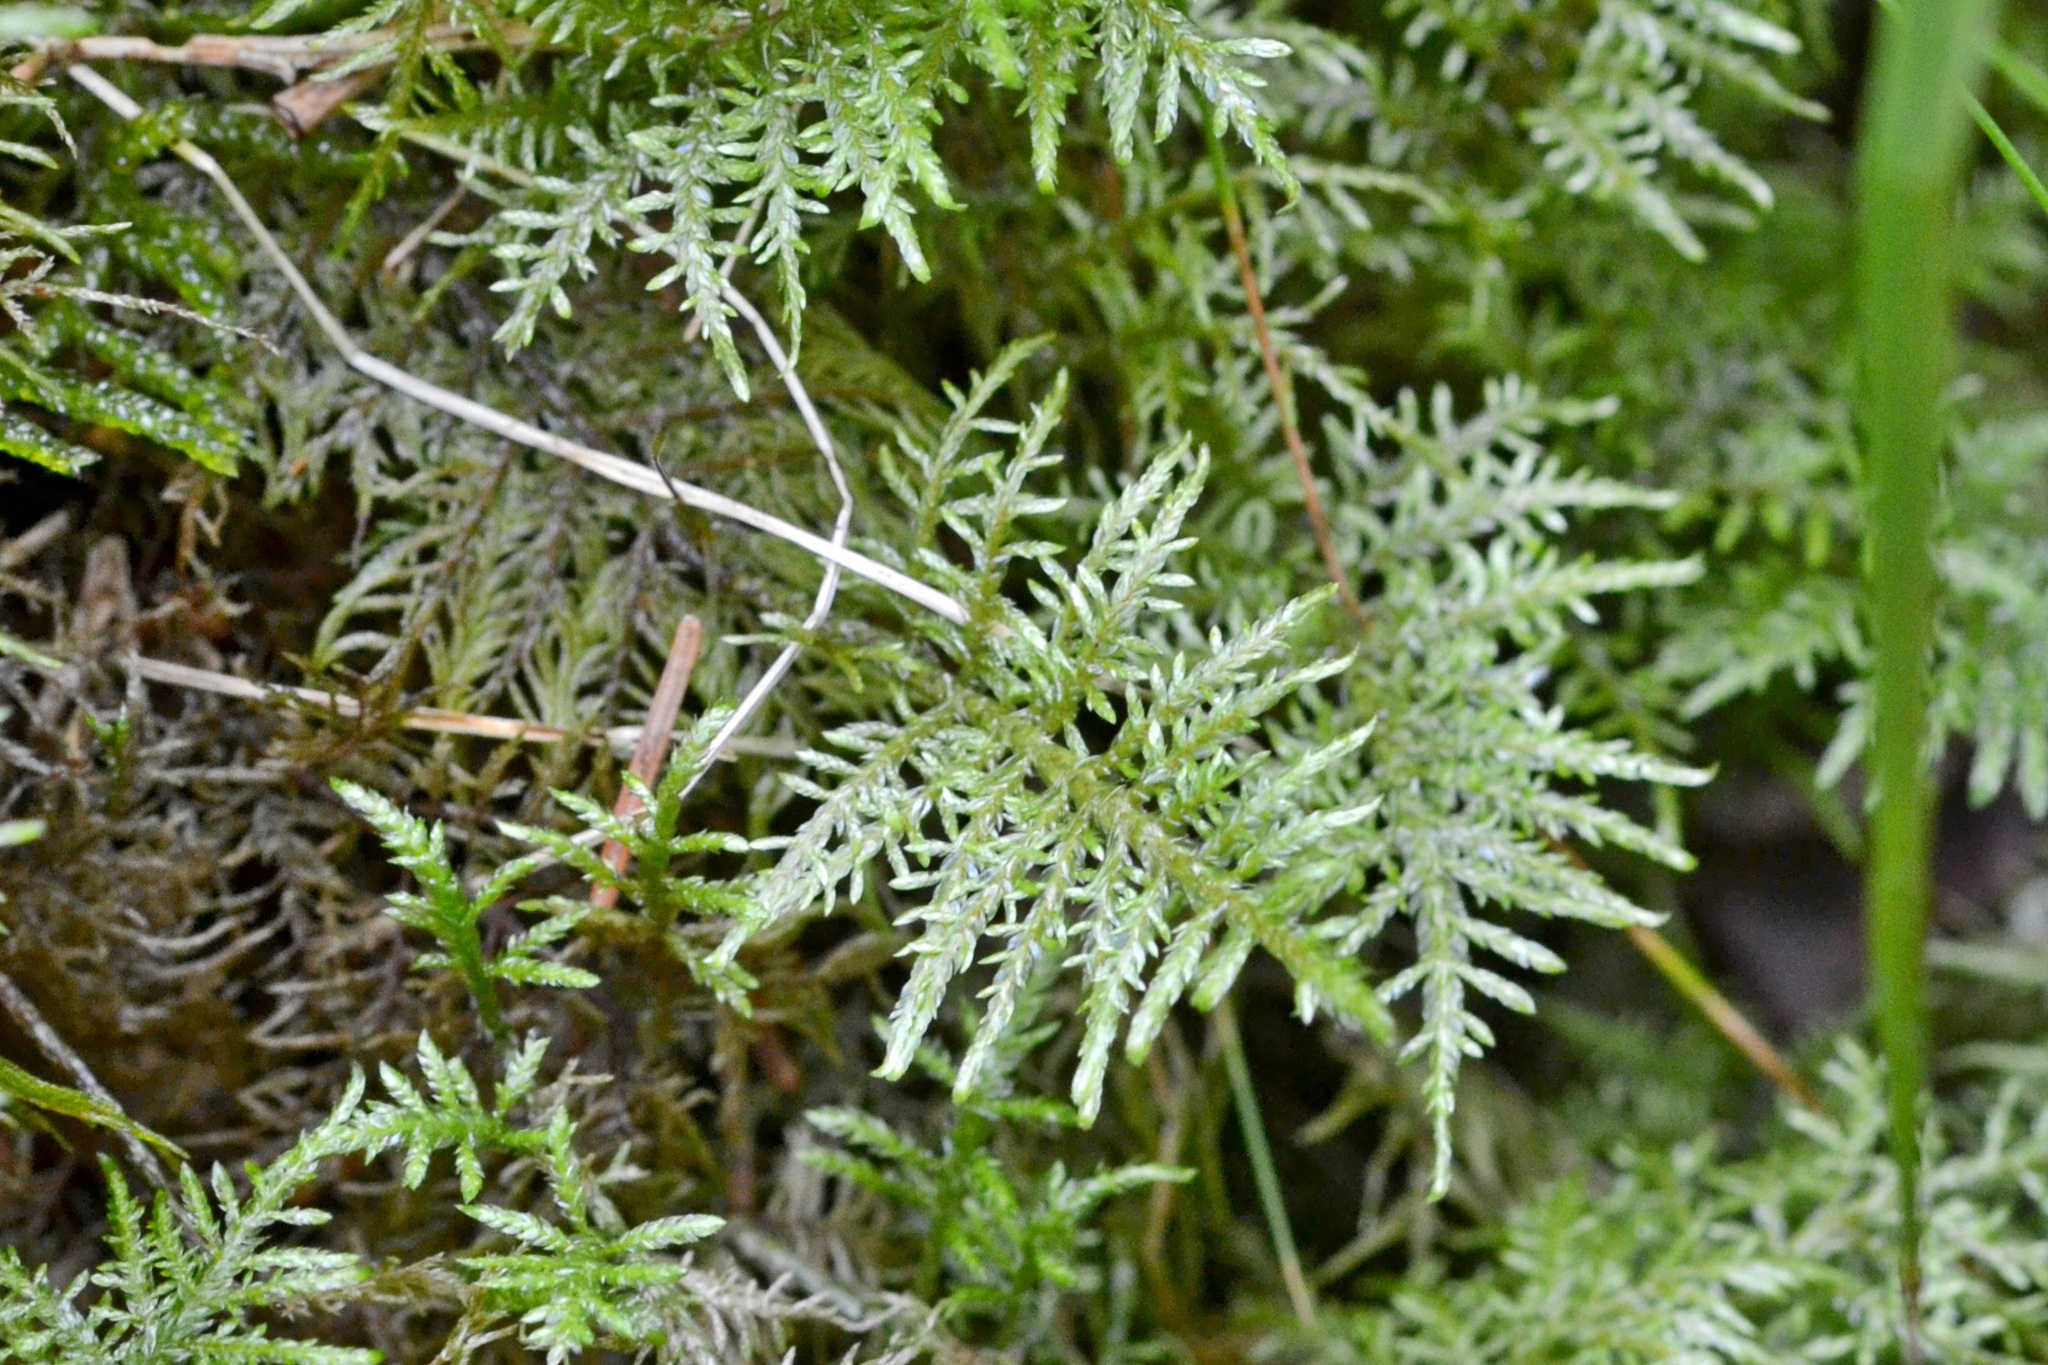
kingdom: Plantae
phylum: Bryophyta
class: Bryopsida
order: Hypnales
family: Hylocomiaceae
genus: Hylocomium
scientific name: Hylocomium splendens
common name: Stairstep moss
